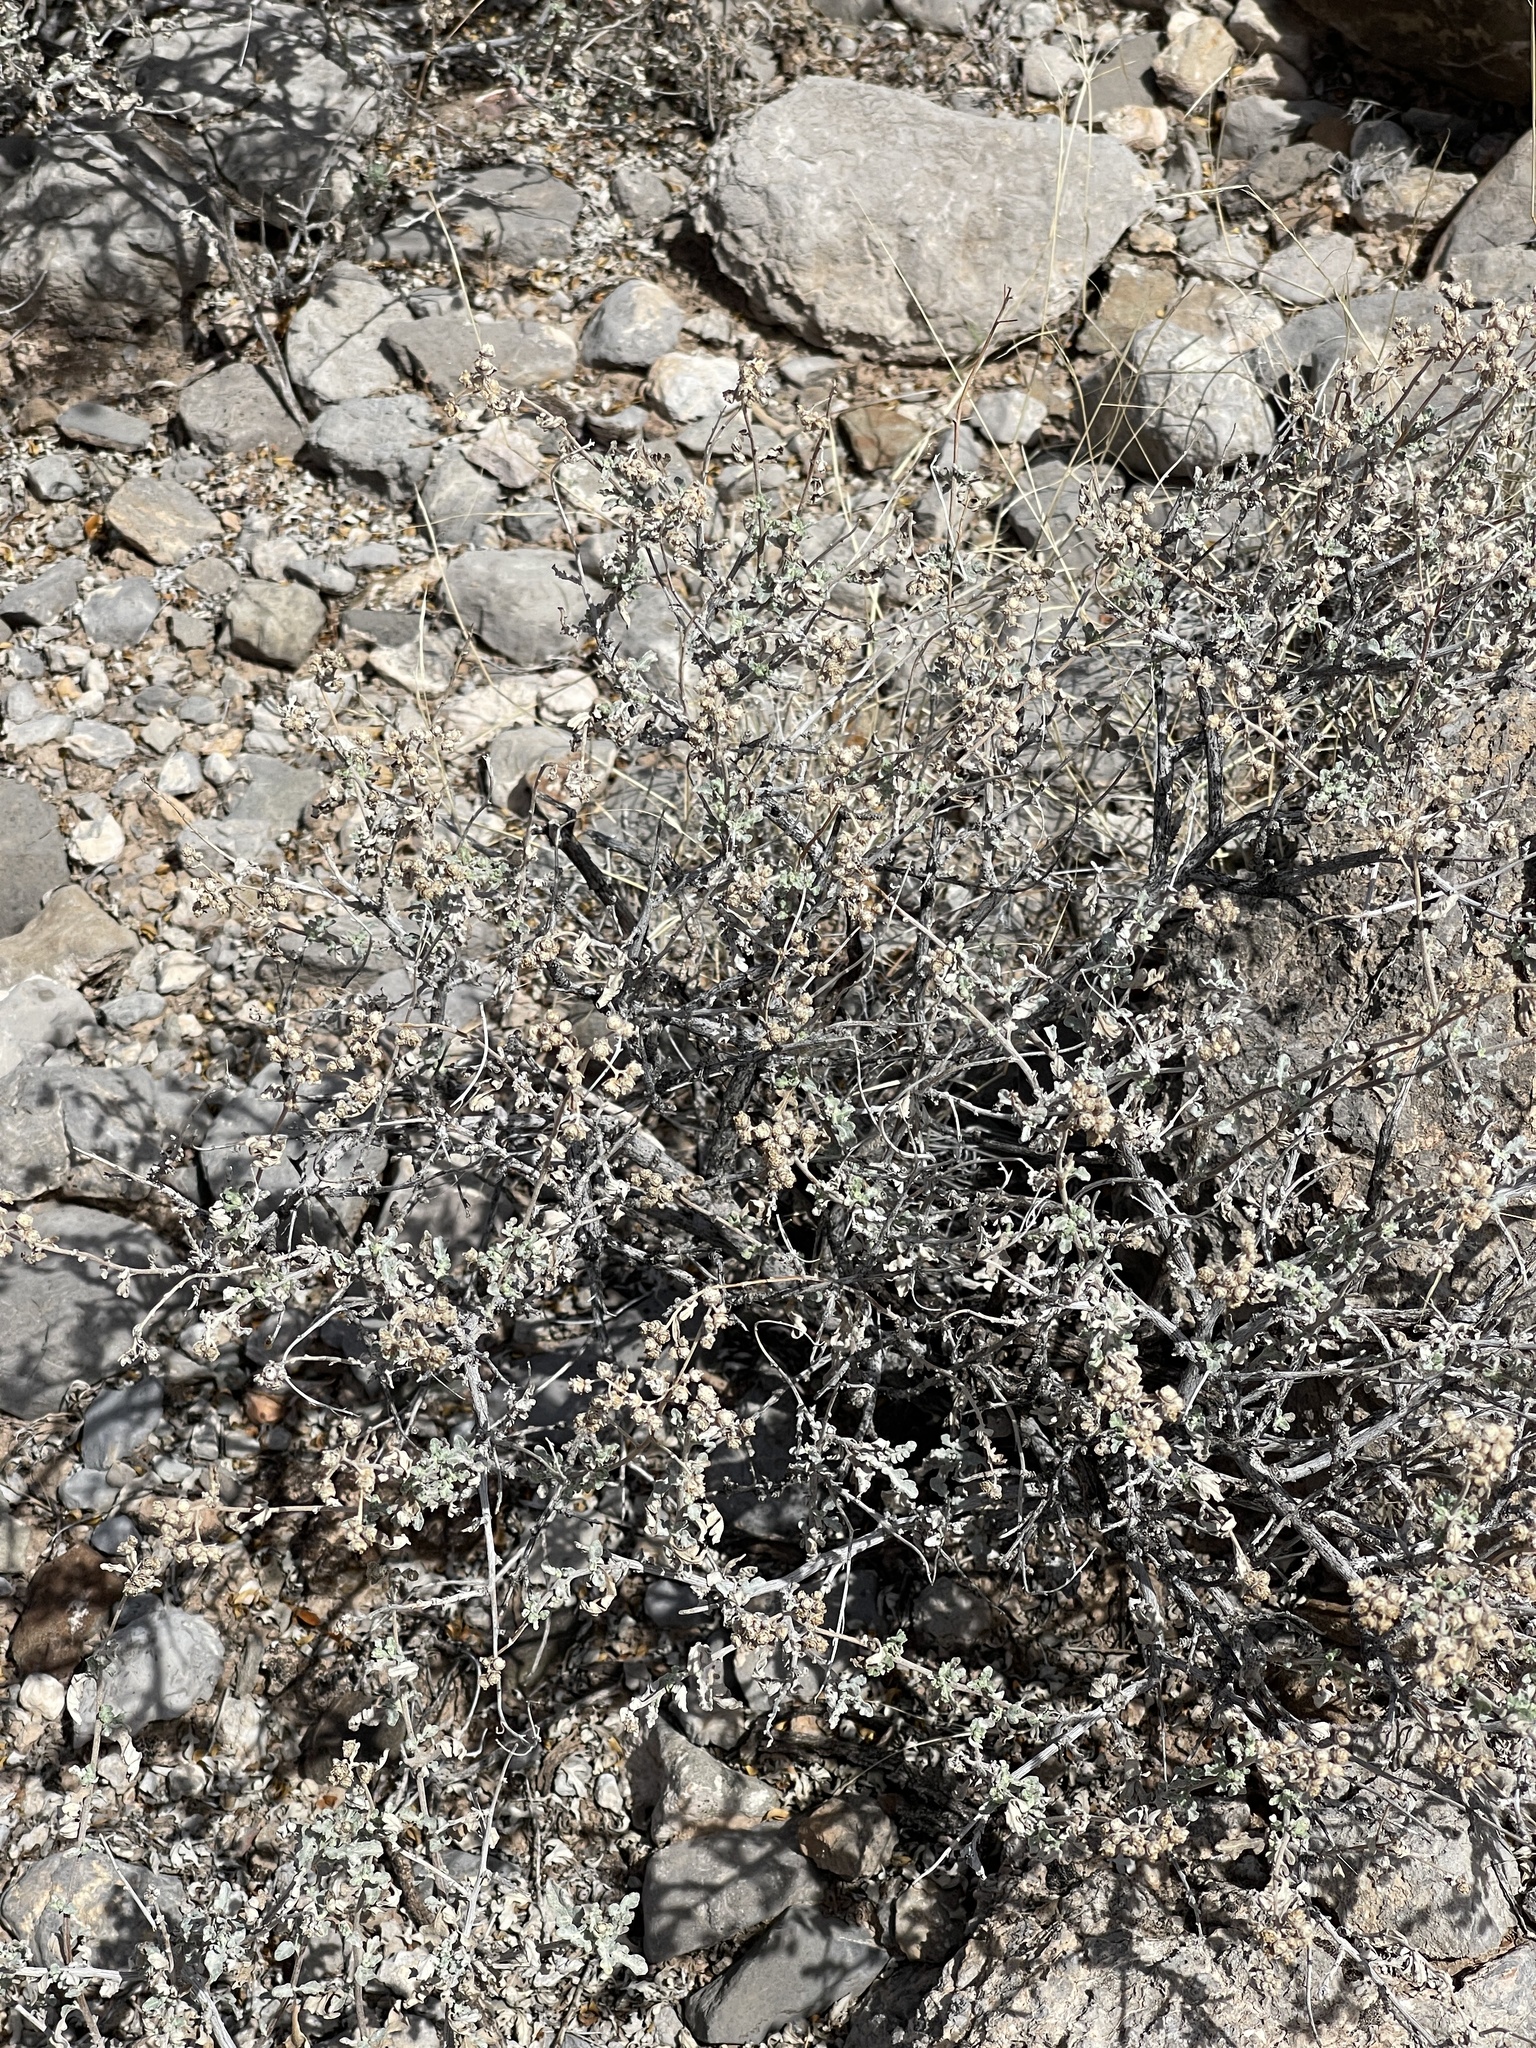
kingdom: Plantae
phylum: Tracheophyta
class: Magnoliopsida
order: Asterales
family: Asteraceae
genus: Parthenium
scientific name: Parthenium incanum
